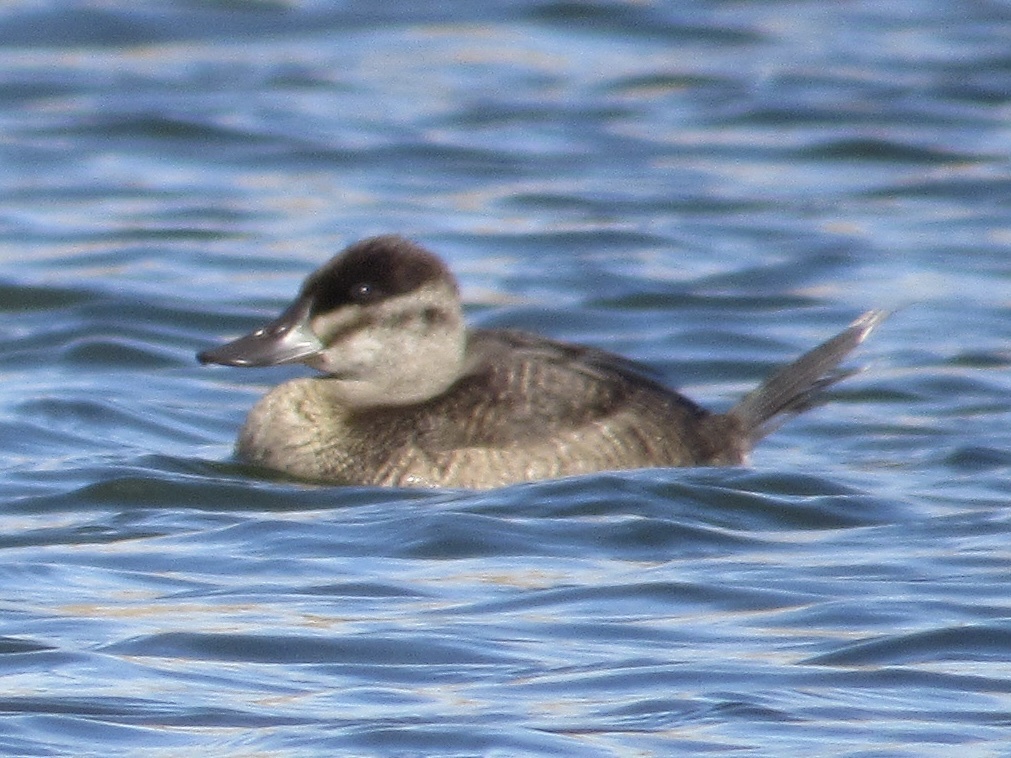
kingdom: Animalia
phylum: Chordata
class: Aves
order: Anseriformes
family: Anatidae
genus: Oxyura
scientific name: Oxyura jamaicensis
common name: Ruddy duck
